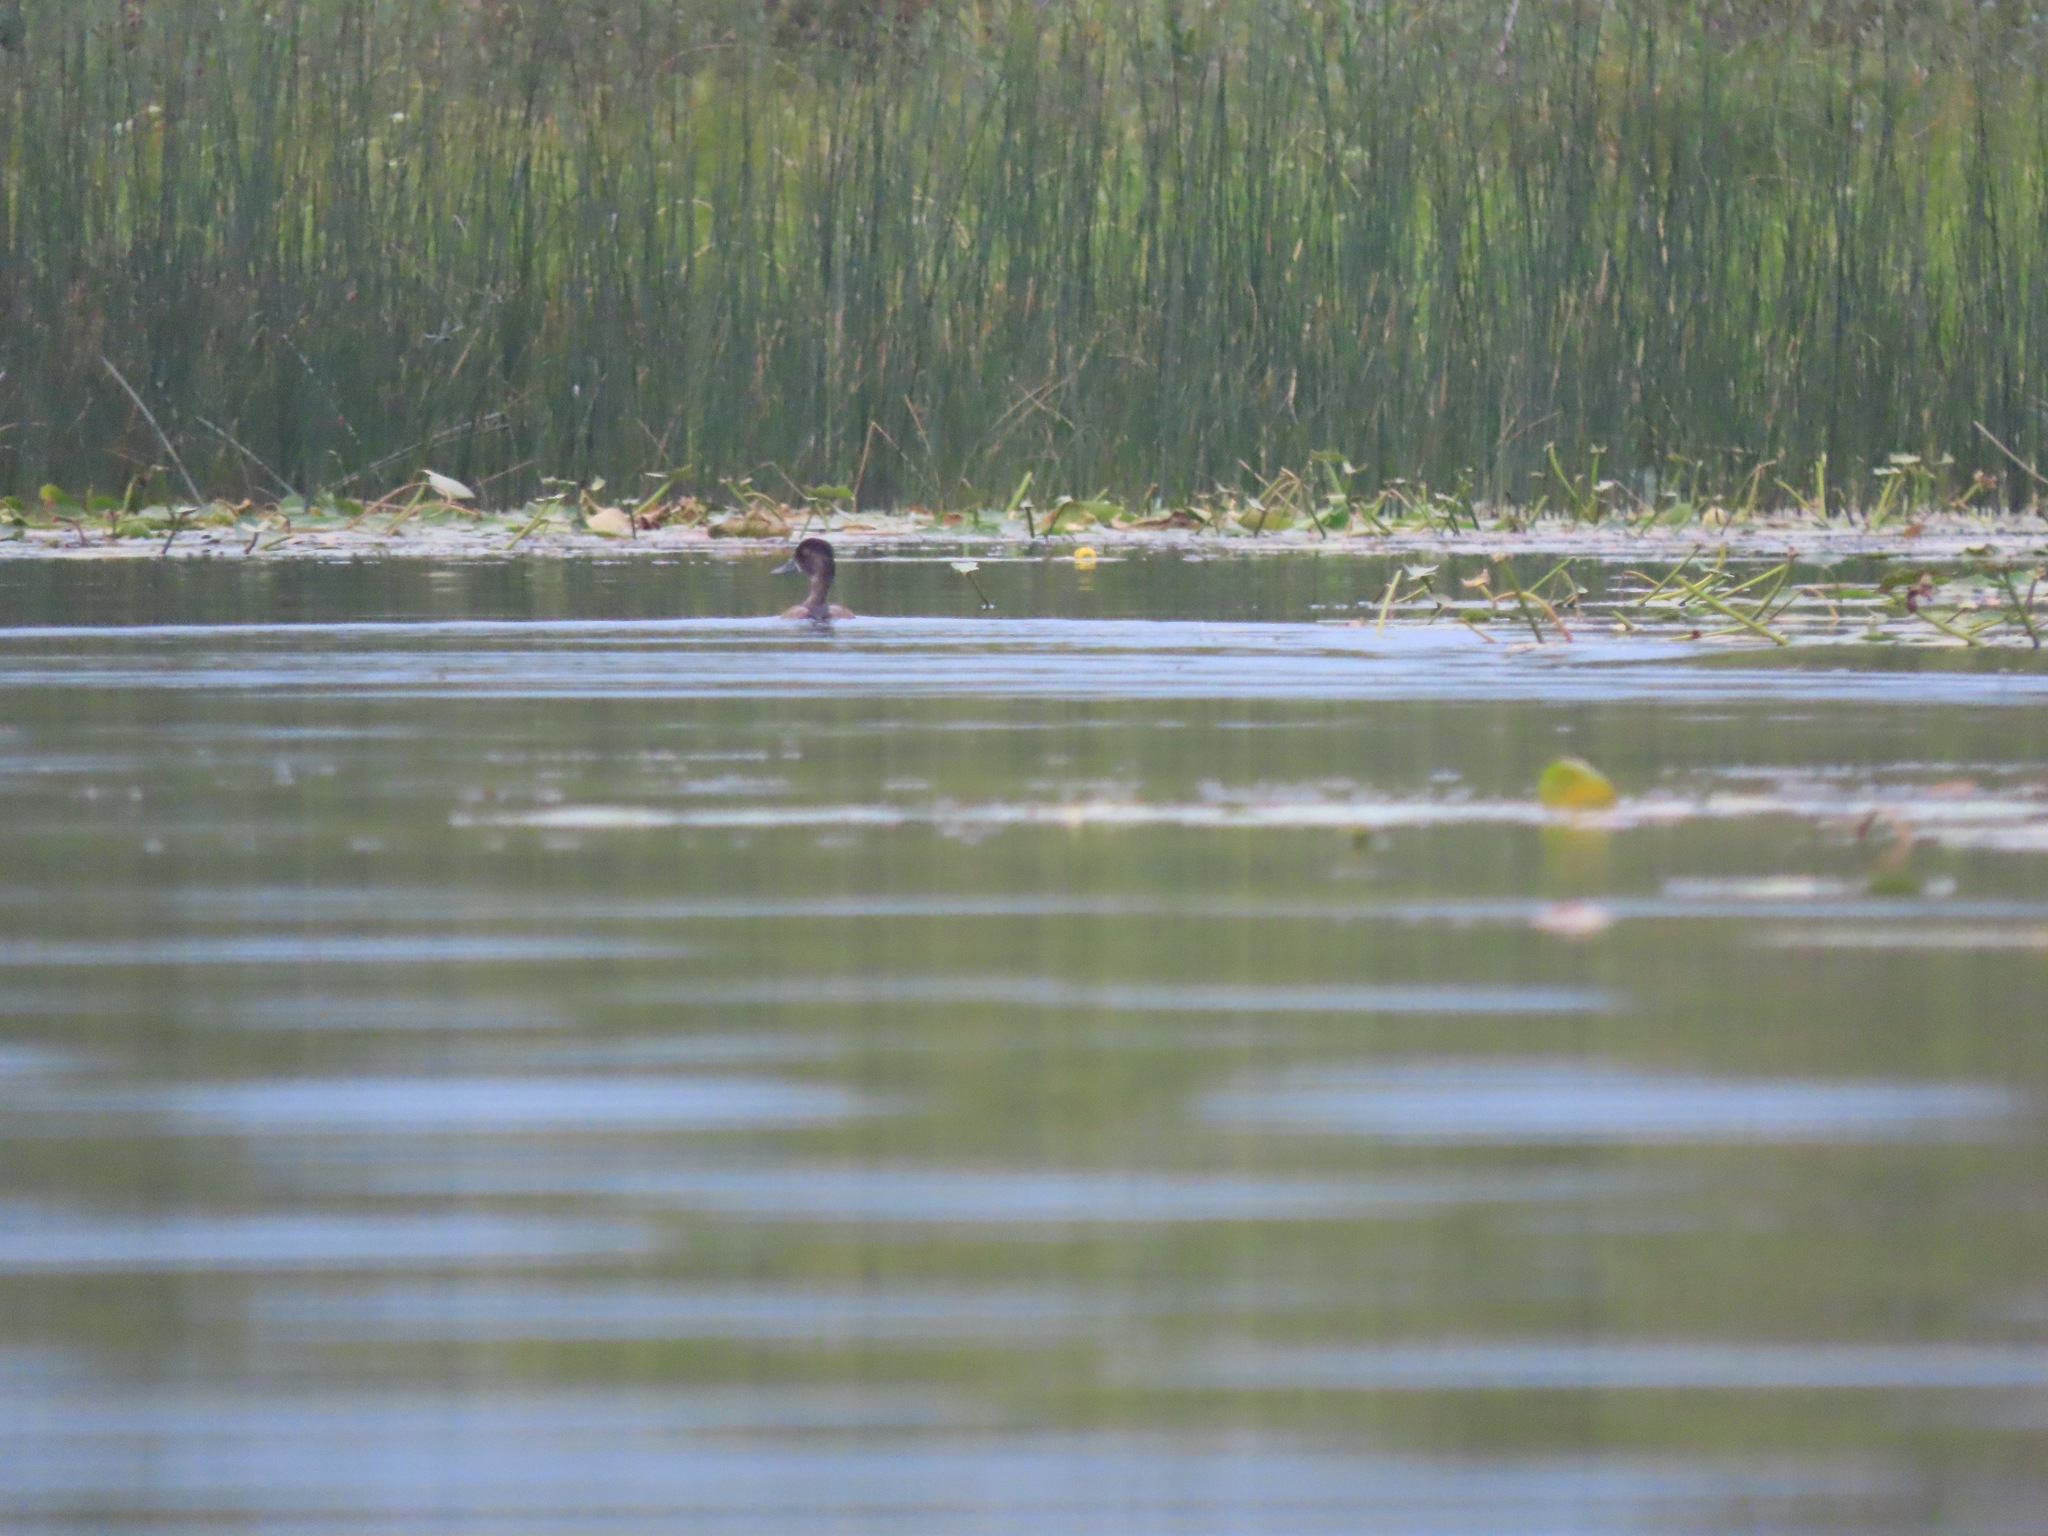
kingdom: Animalia
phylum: Chordata
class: Aves
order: Anseriformes
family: Anatidae
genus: Aythya
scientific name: Aythya collaris
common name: Ring-necked duck
